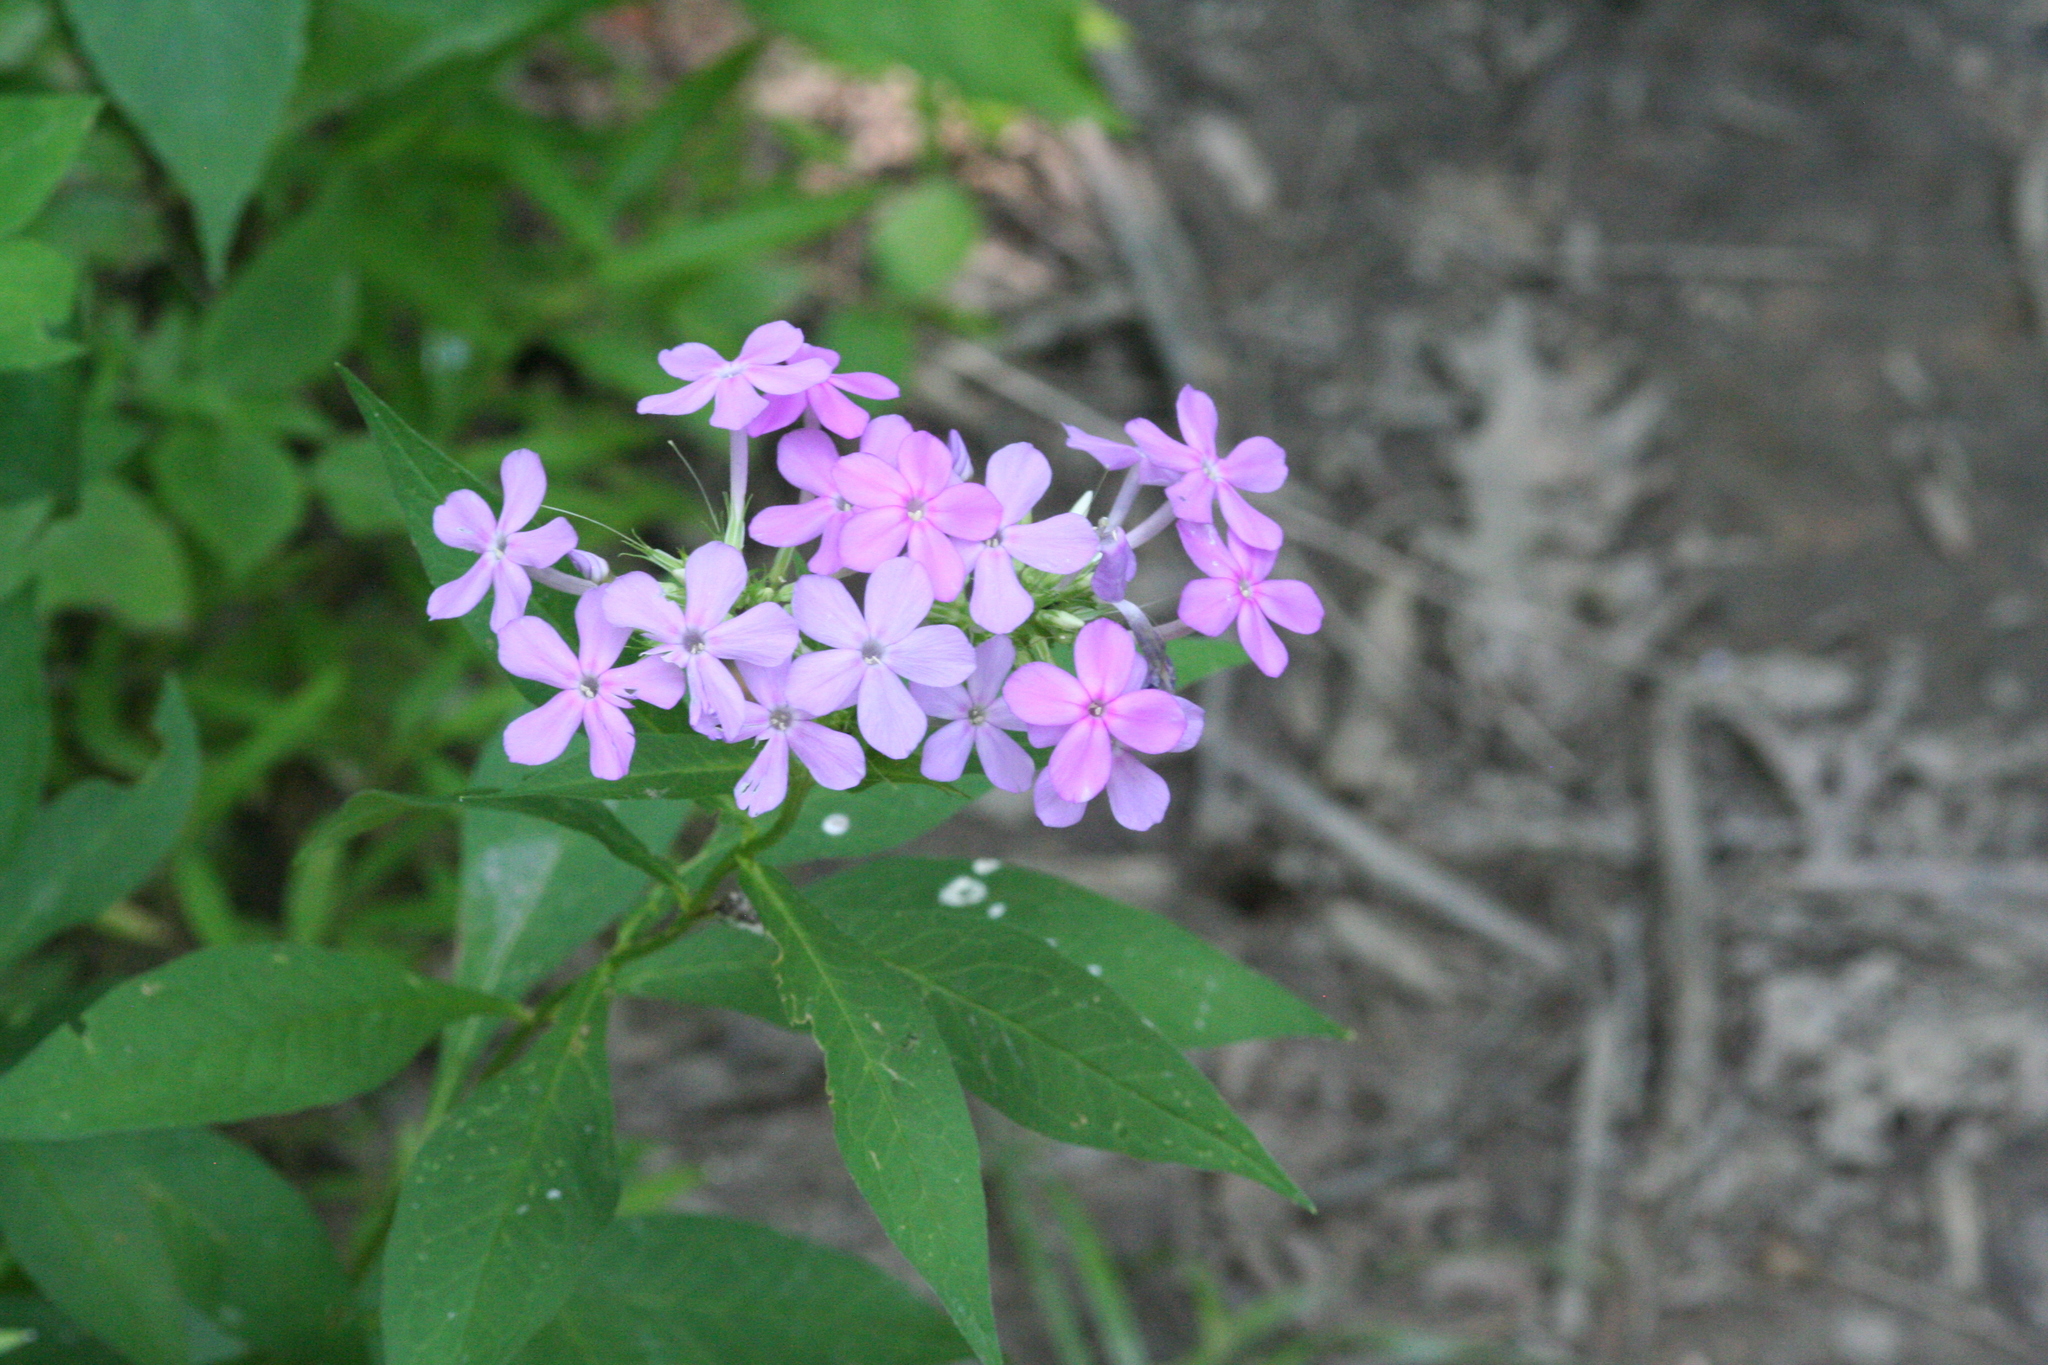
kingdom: Plantae
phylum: Tracheophyta
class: Magnoliopsida
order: Ericales
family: Polemoniaceae
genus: Phlox
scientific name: Phlox paniculata
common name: Fall phlox
